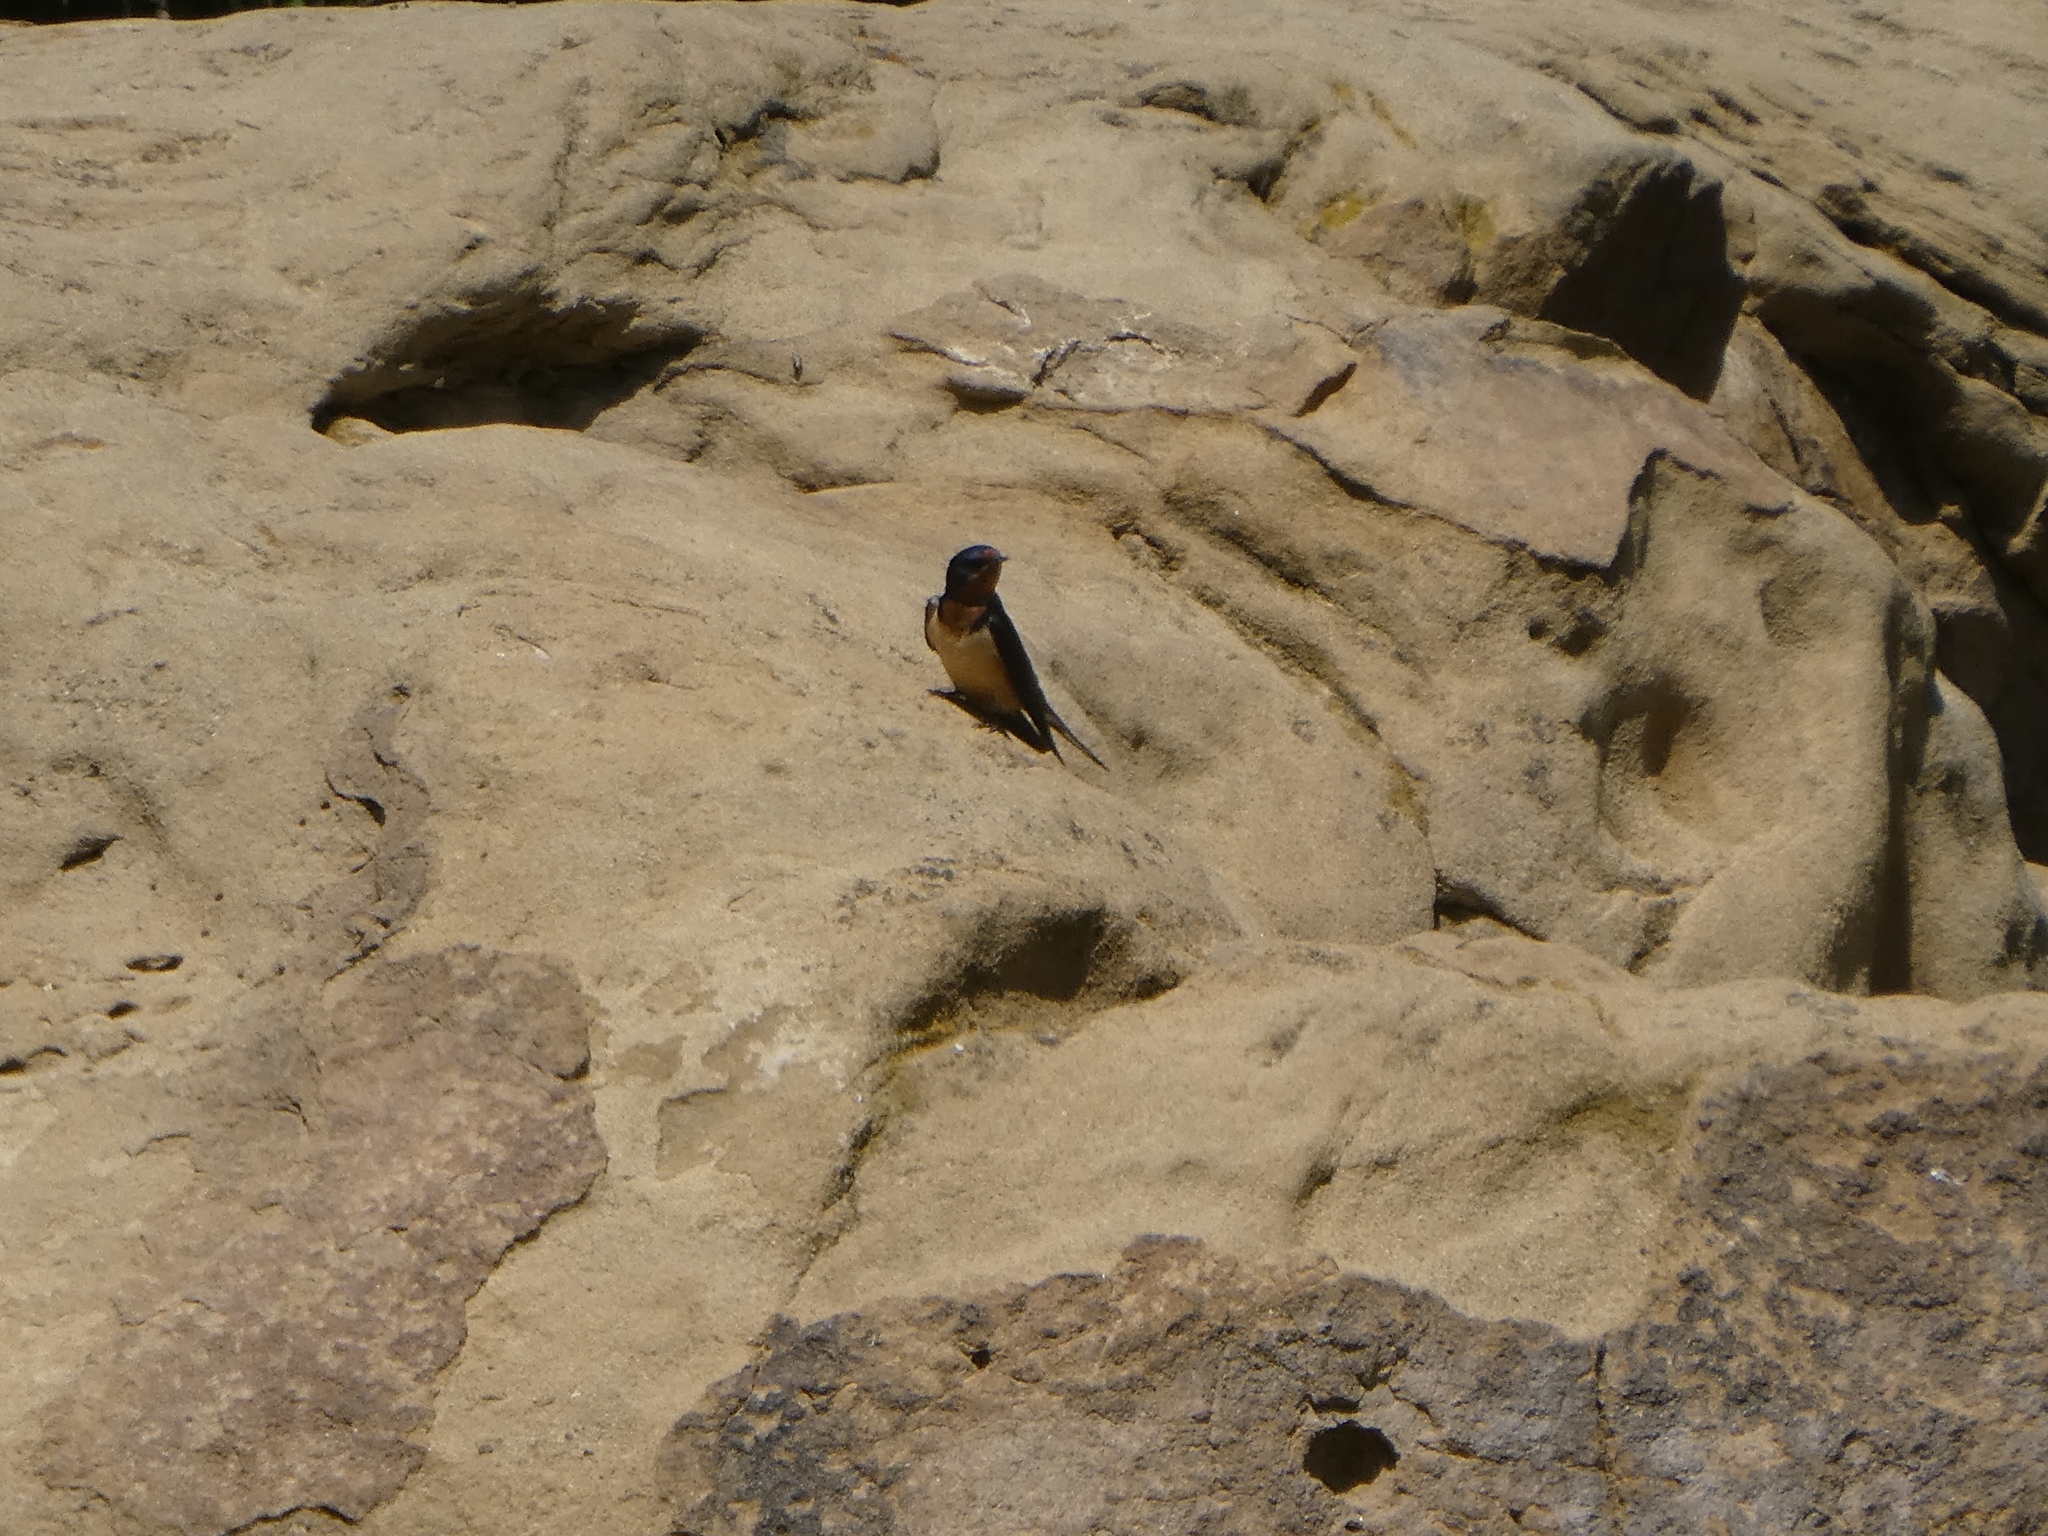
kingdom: Animalia
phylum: Chordata
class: Aves
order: Passeriformes
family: Hirundinidae
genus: Hirundo
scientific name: Hirundo rustica
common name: Barn swallow
